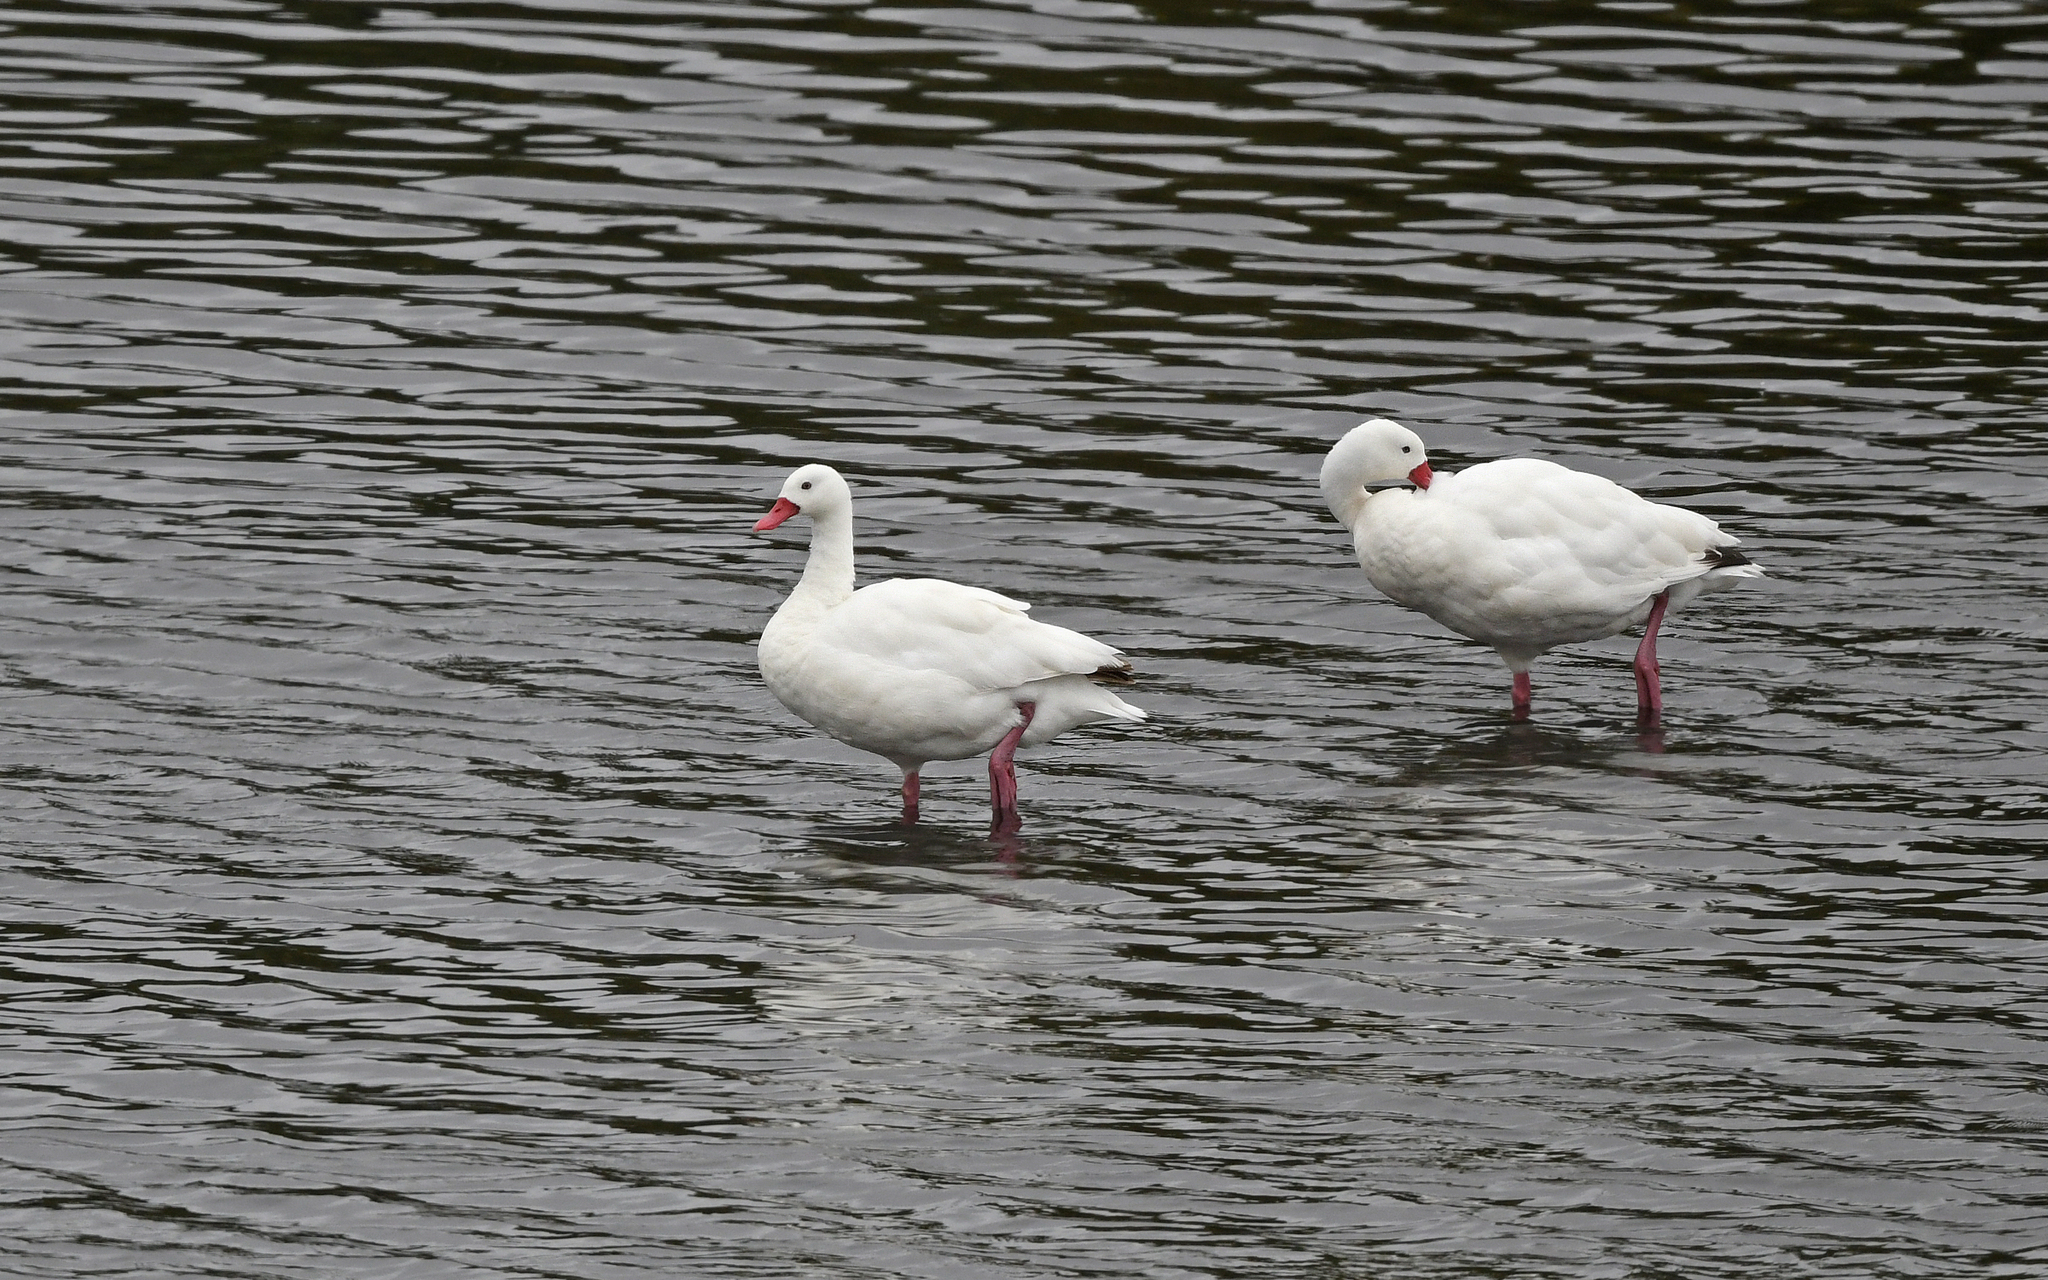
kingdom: Animalia
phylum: Chordata
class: Aves
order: Anseriformes
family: Anatidae
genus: Coscoroba
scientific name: Coscoroba coscoroba
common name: Coscoroba swan
